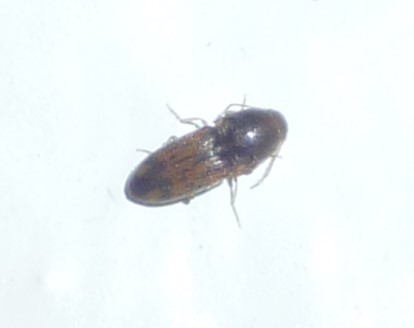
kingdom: Animalia
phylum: Arthropoda
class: Insecta
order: Coleoptera
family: Elateridae
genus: Monocrepidius
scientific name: Monocrepidius bellus
